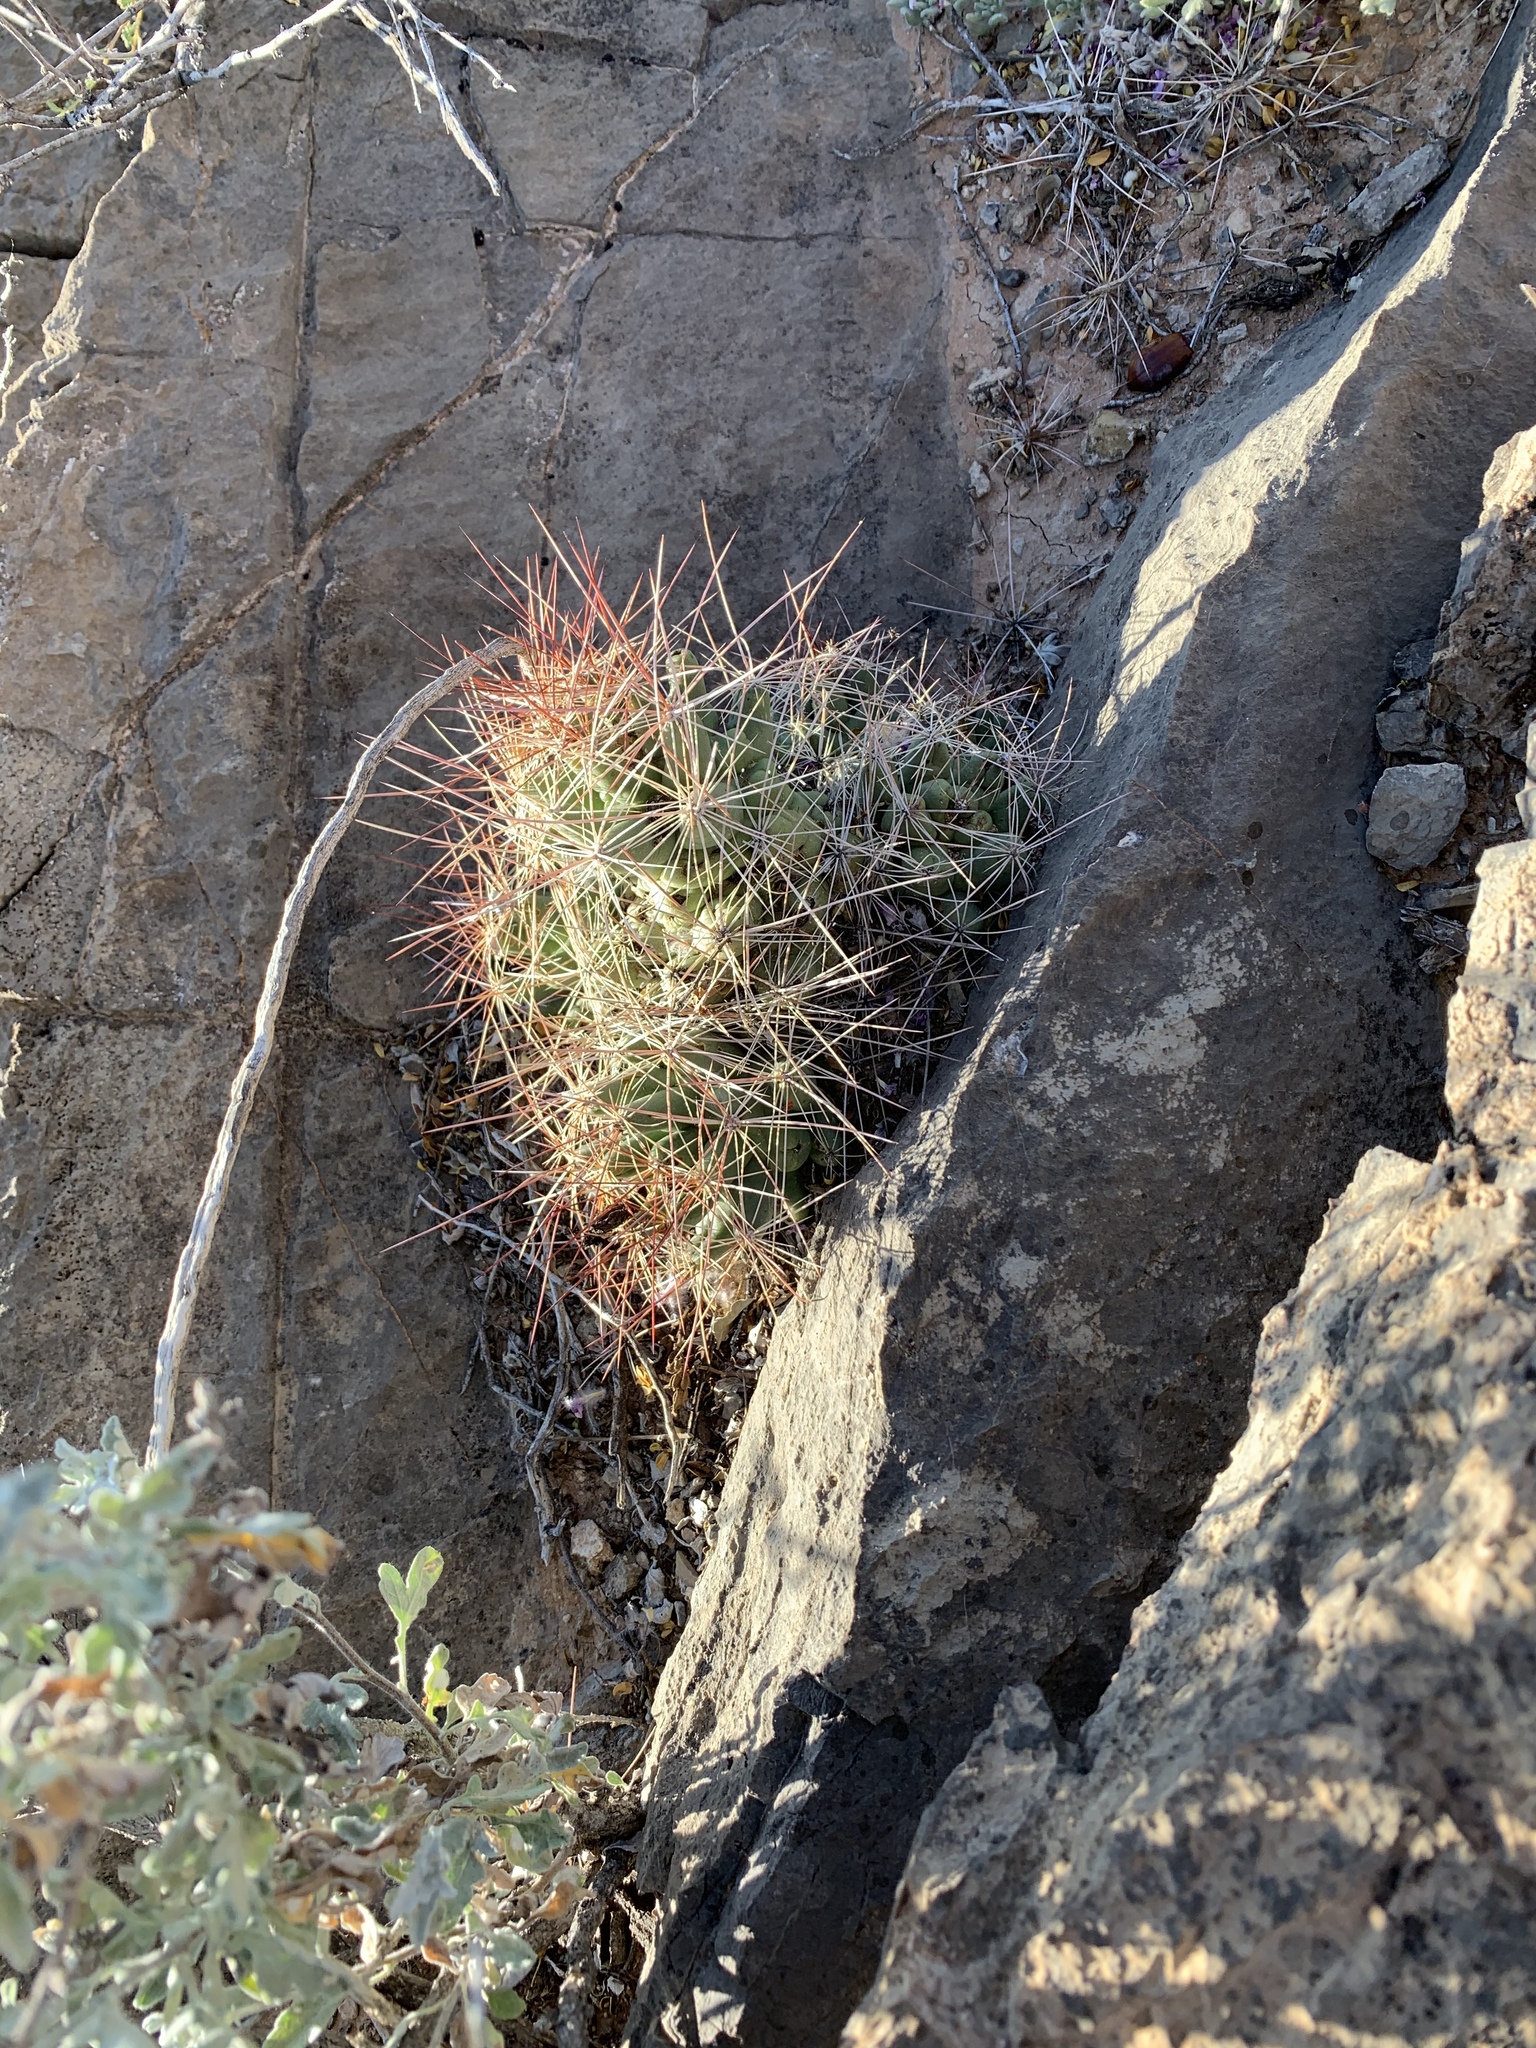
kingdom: Plantae
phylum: Tracheophyta
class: Magnoliopsida
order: Caryophyllales
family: Cactaceae
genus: Coryphantha
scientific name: Coryphantha macromeris
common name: Nipple beehive cactus
